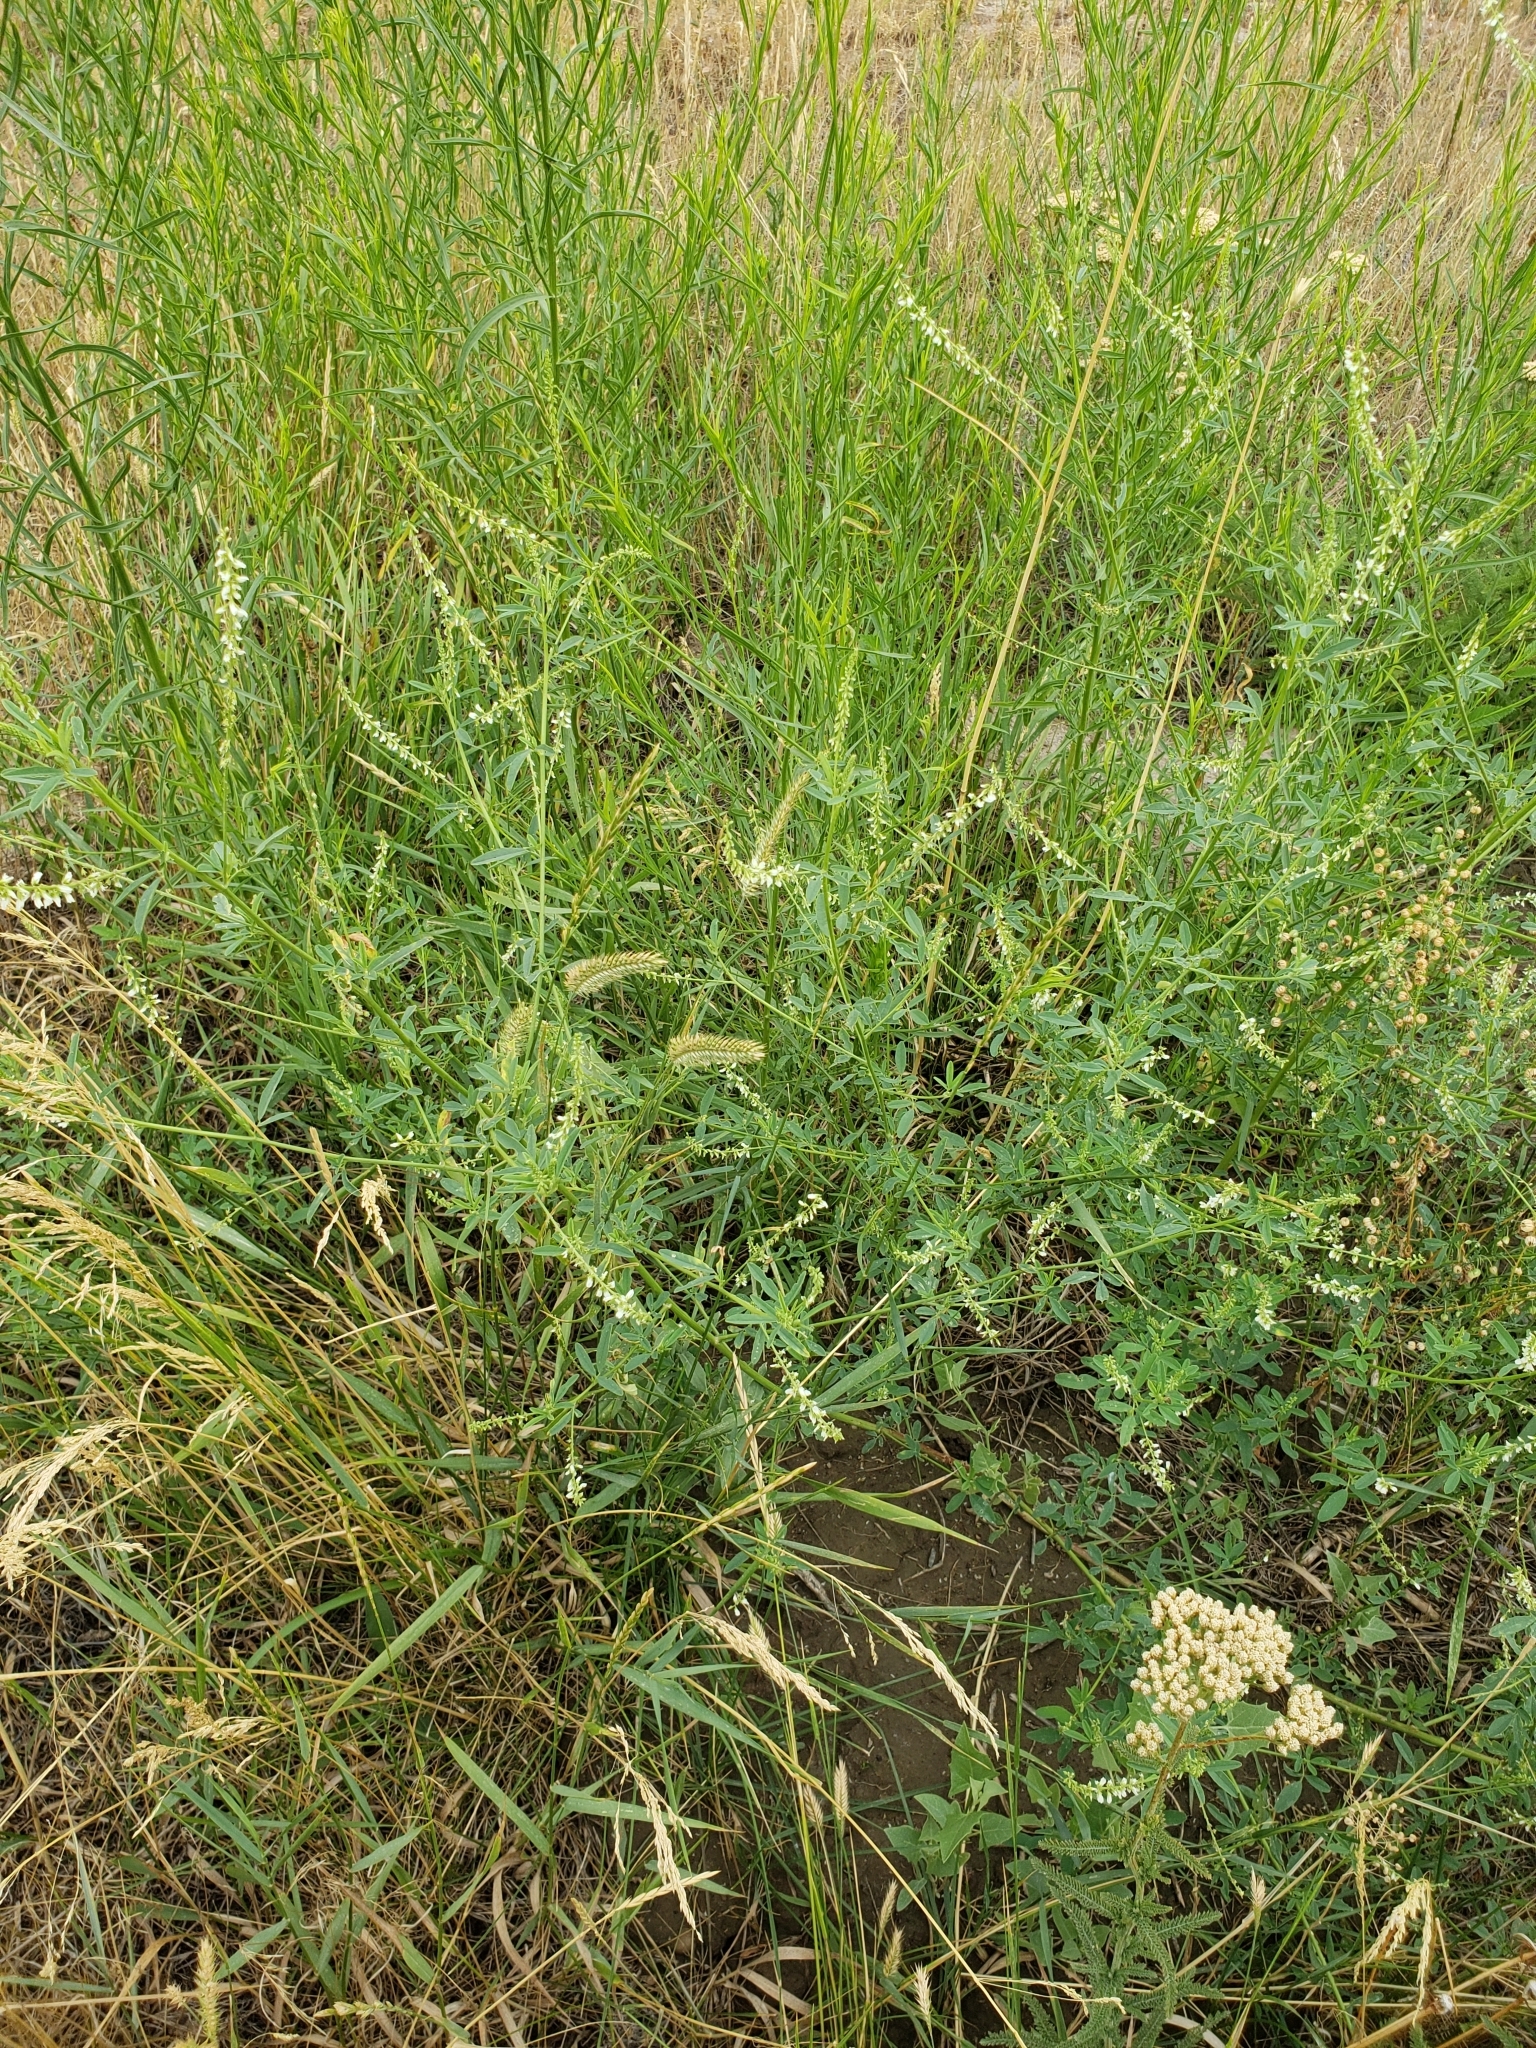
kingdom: Plantae
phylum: Tracheophyta
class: Magnoliopsida
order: Fabales
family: Fabaceae
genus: Melilotus
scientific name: Melilotus albus
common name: White melilot
